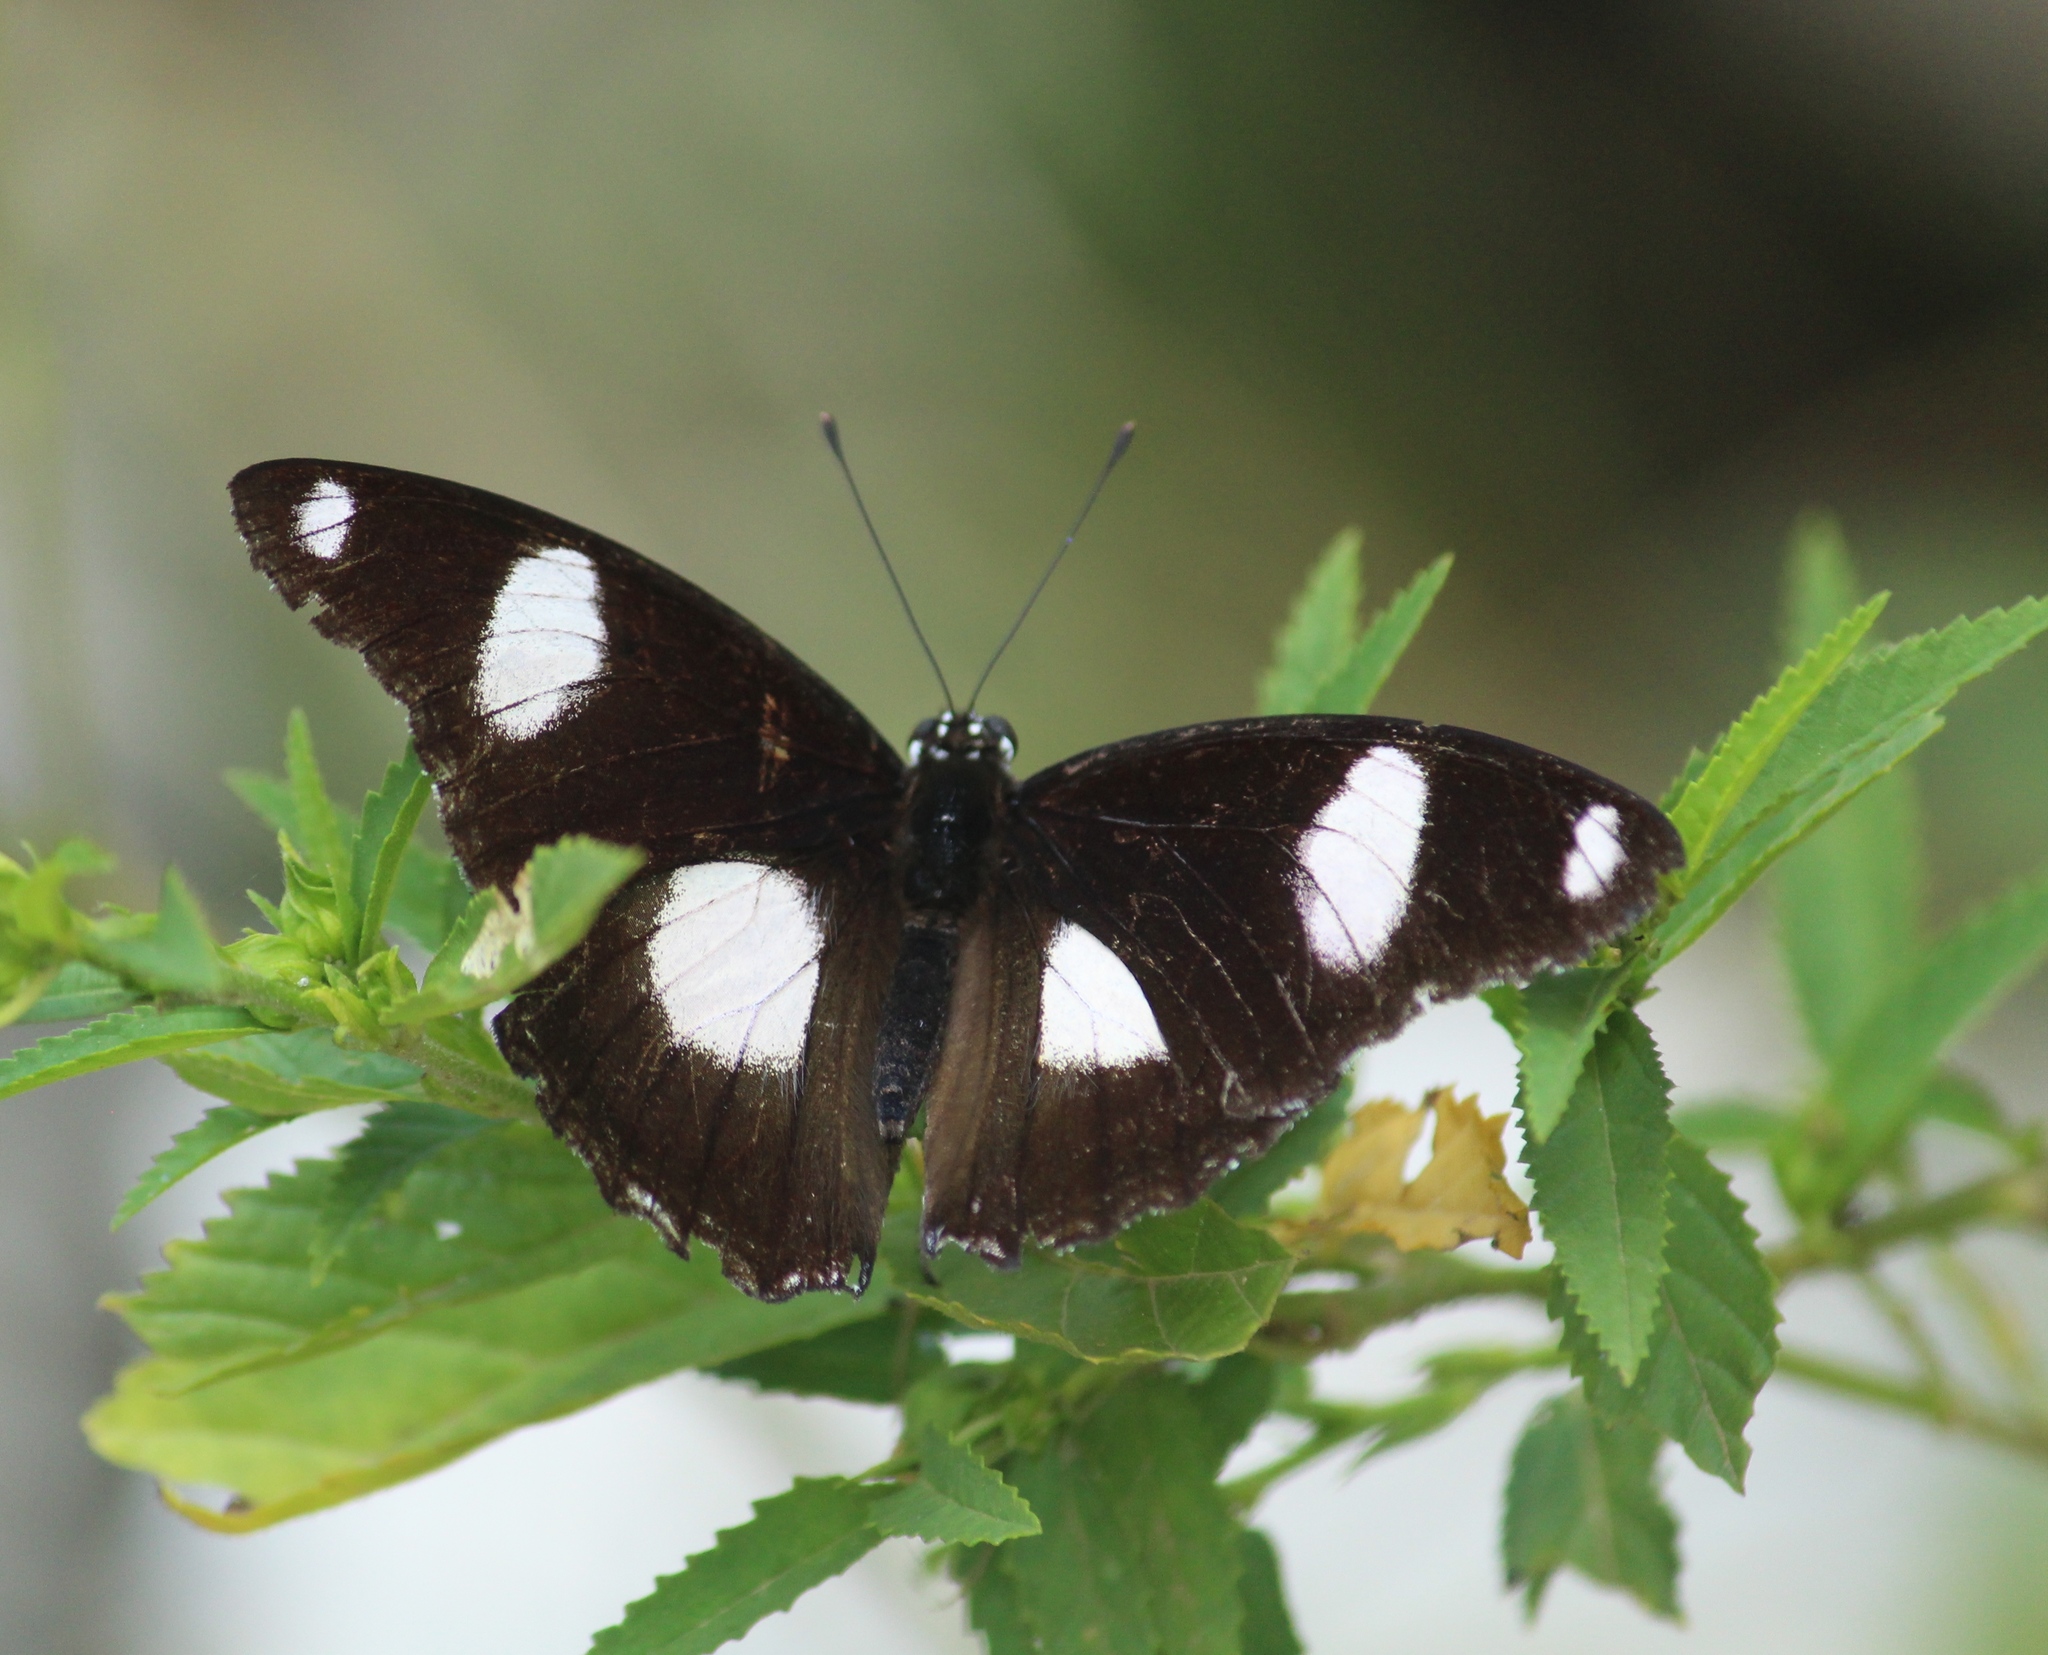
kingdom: Animalia
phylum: Arthropoda
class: Insecta
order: Lepidoptera
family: Nymphalidae
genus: Hypolimnas
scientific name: Hypolimnas misippus
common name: False plain tiger
